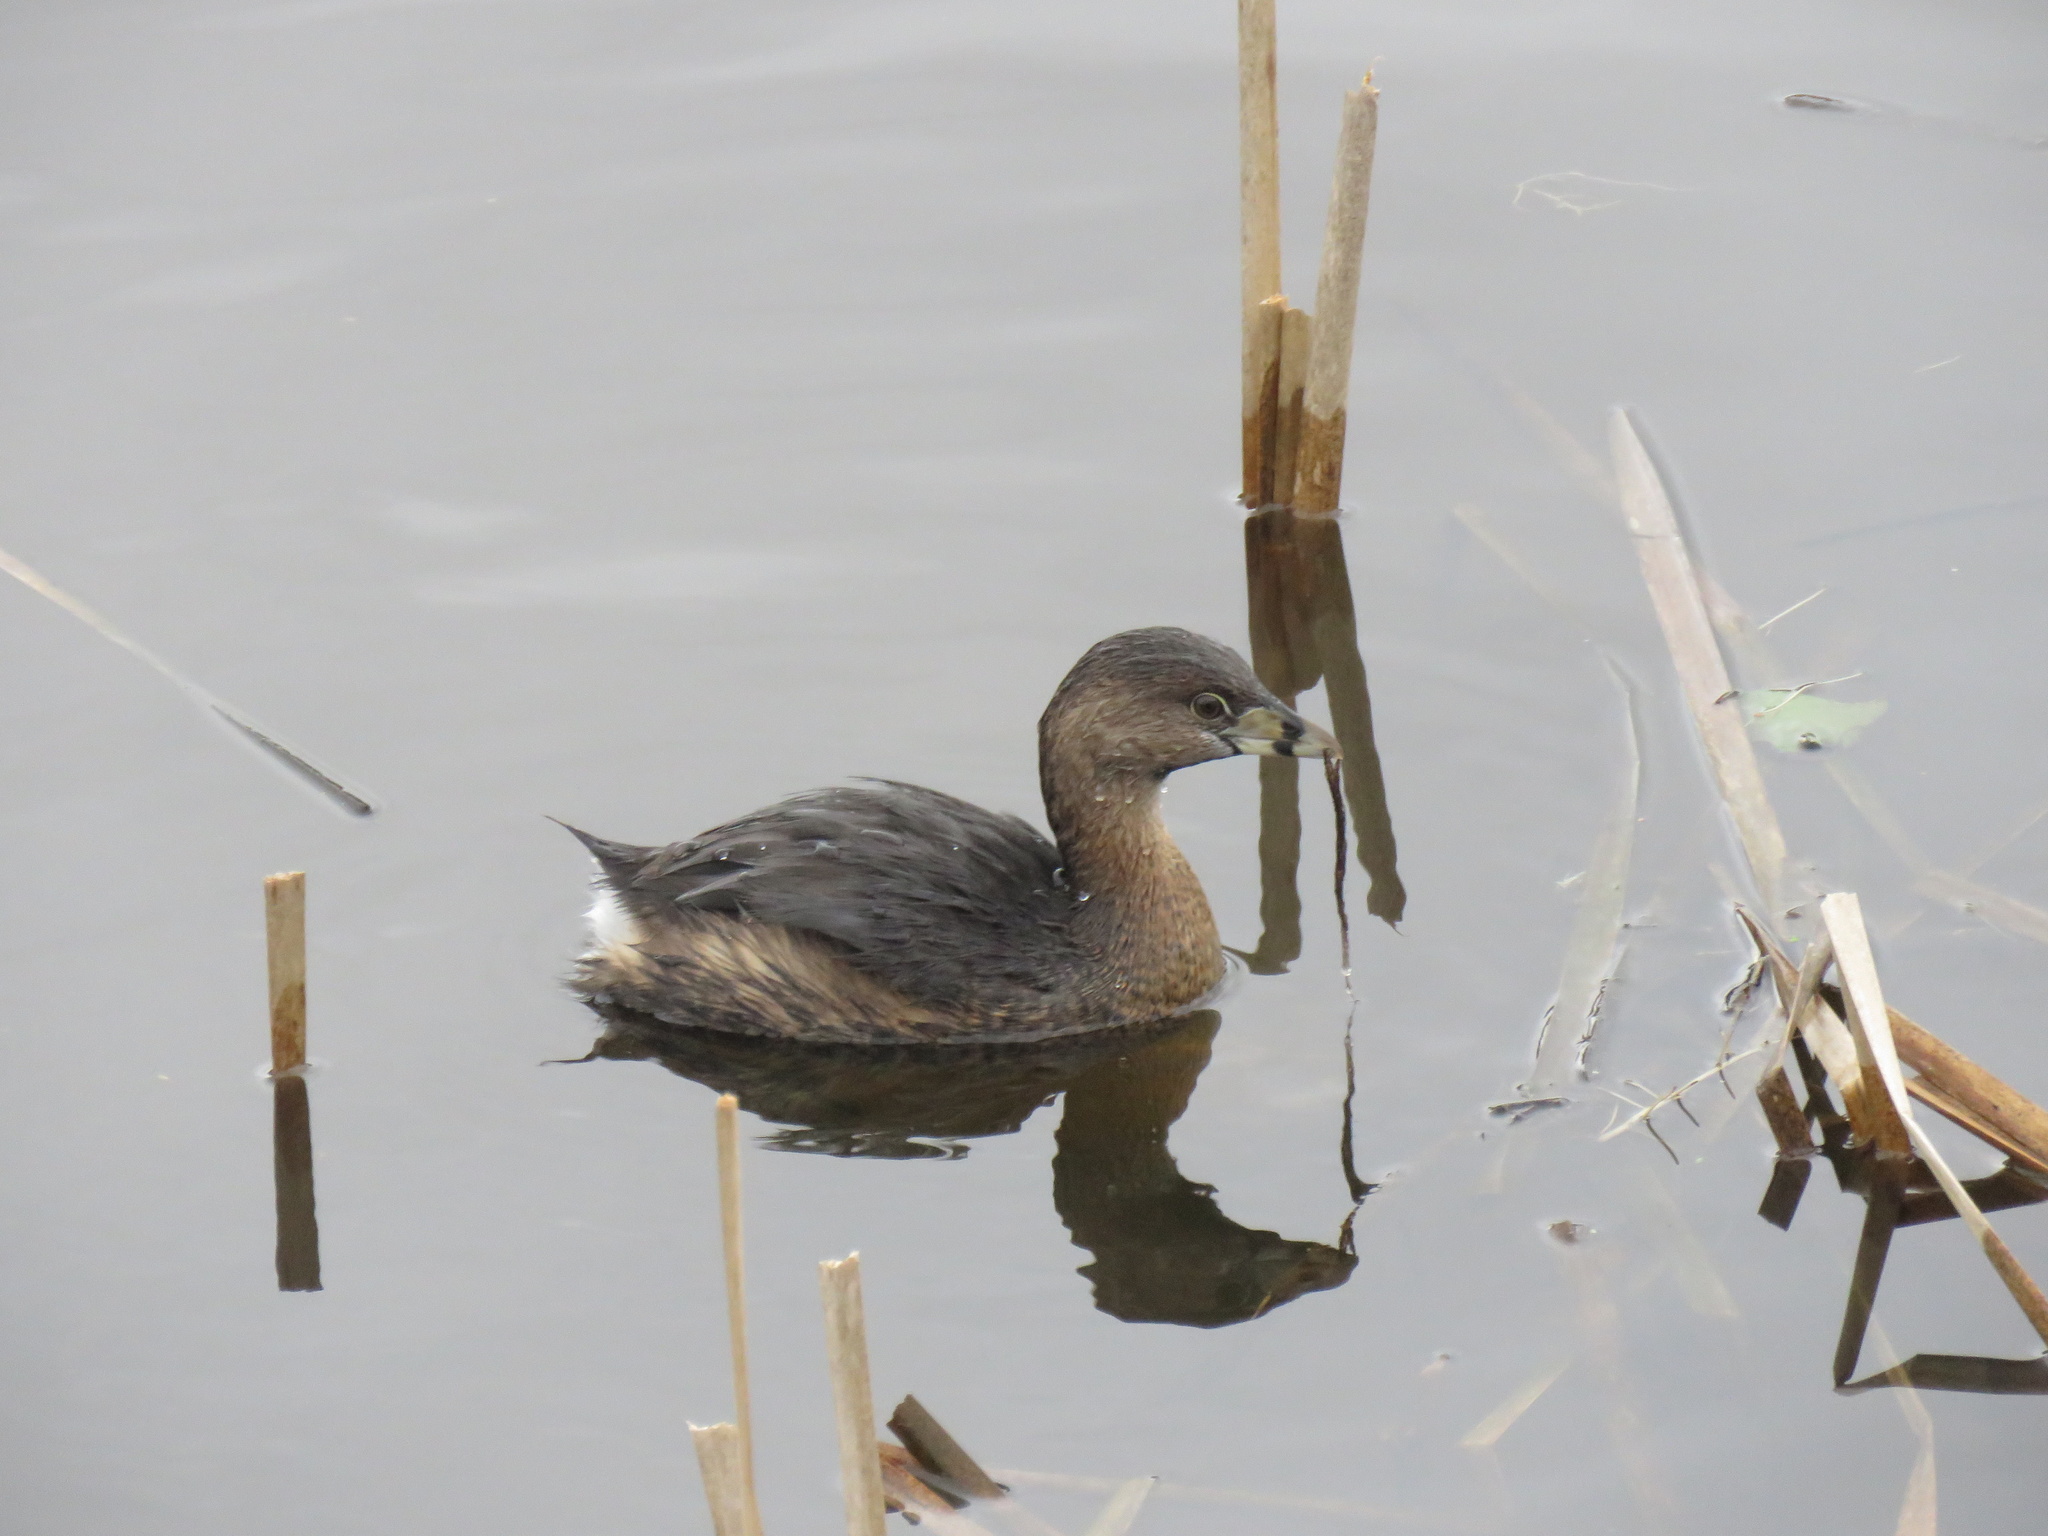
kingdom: Animalia
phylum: Chordata
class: Aves
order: Podicipediformes
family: Podicipedidae
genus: Podilymbus
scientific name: Podilymbus podiceps
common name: Pied-billed grebe
